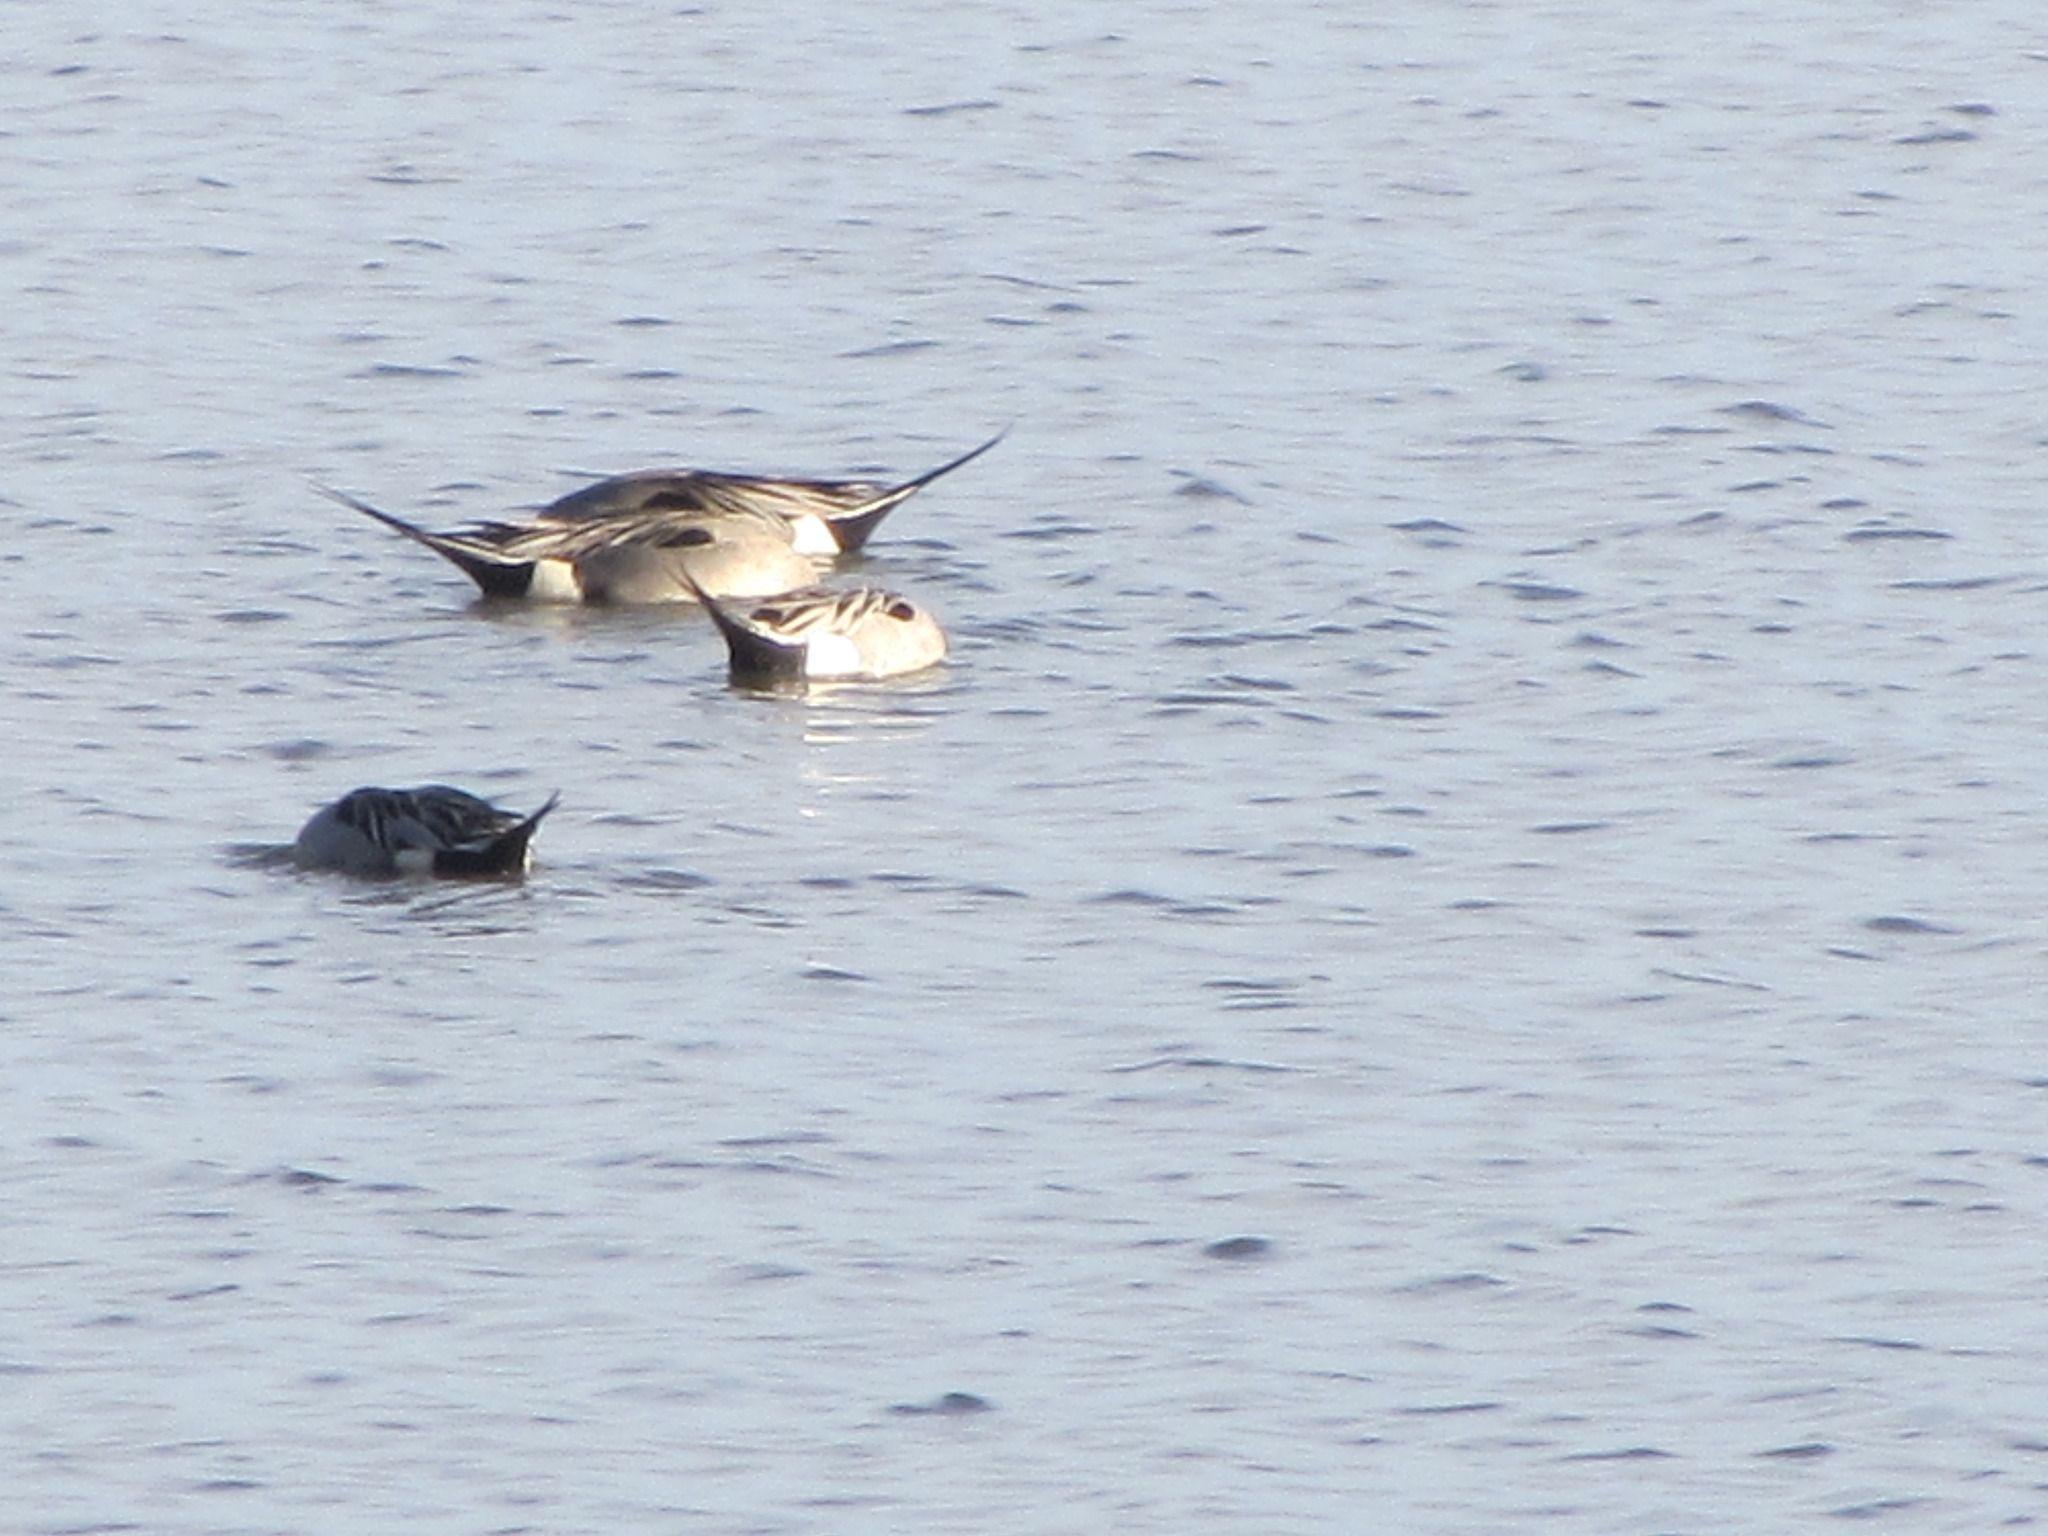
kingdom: Animalia
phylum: Chordata
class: Aves
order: Anseriformes
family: Anatidae
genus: Anas
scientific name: Anas acuta
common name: Northern pintail
